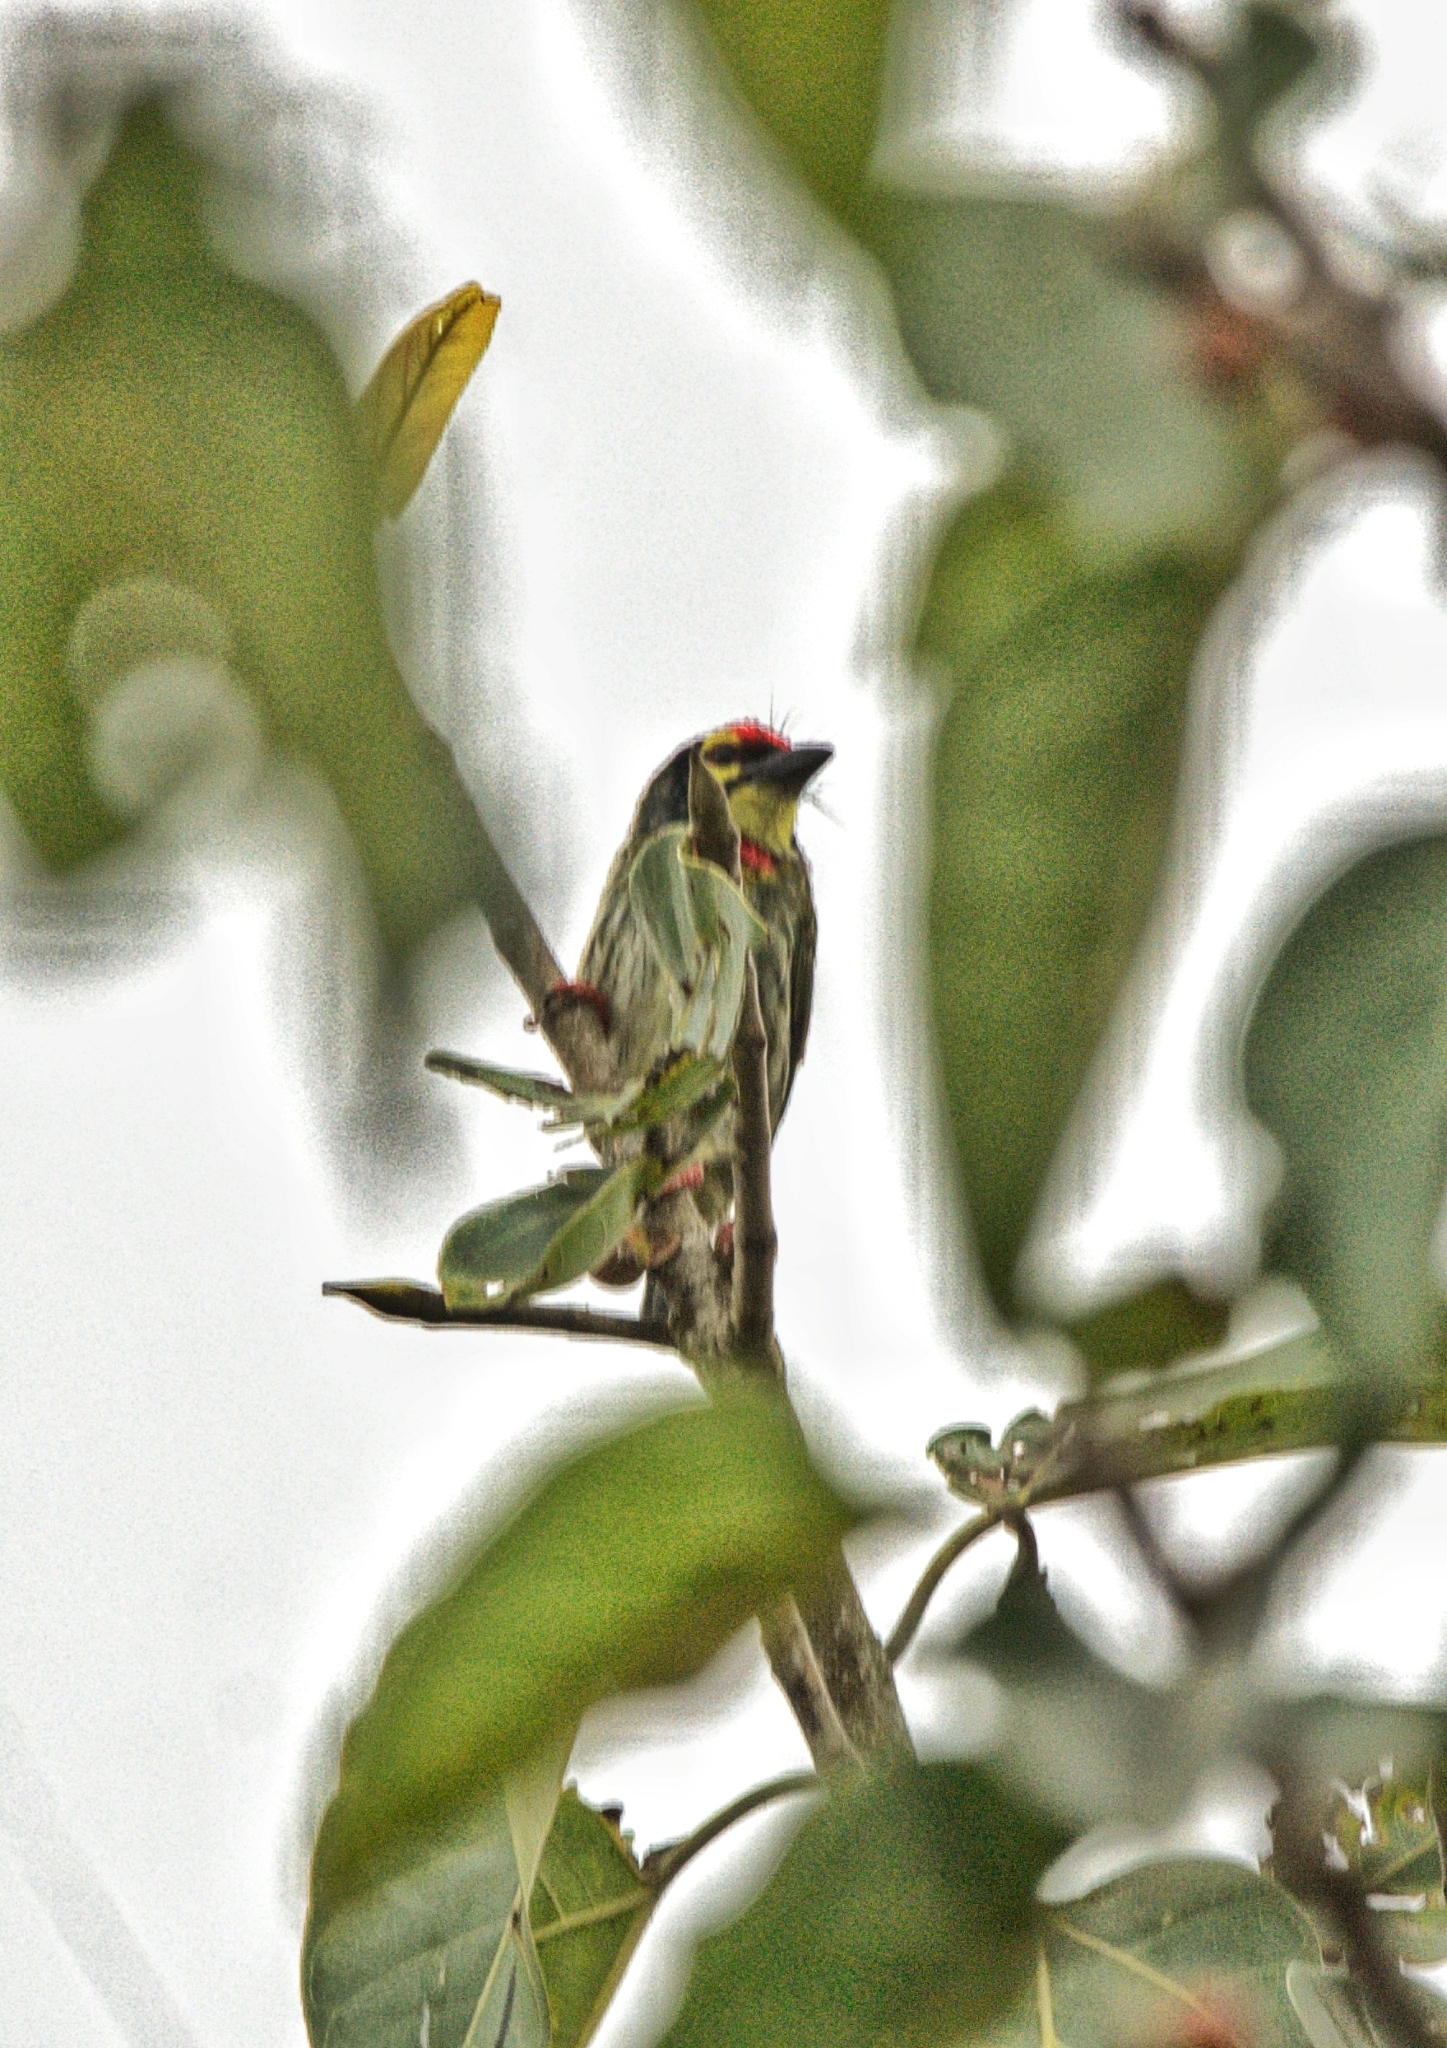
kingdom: Animalia
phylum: Chordata
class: Aves
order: Piciformes
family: Megalaimidae
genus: Psilopogon
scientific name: Psilopogon haemacephalus
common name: Coppersmith barbet
